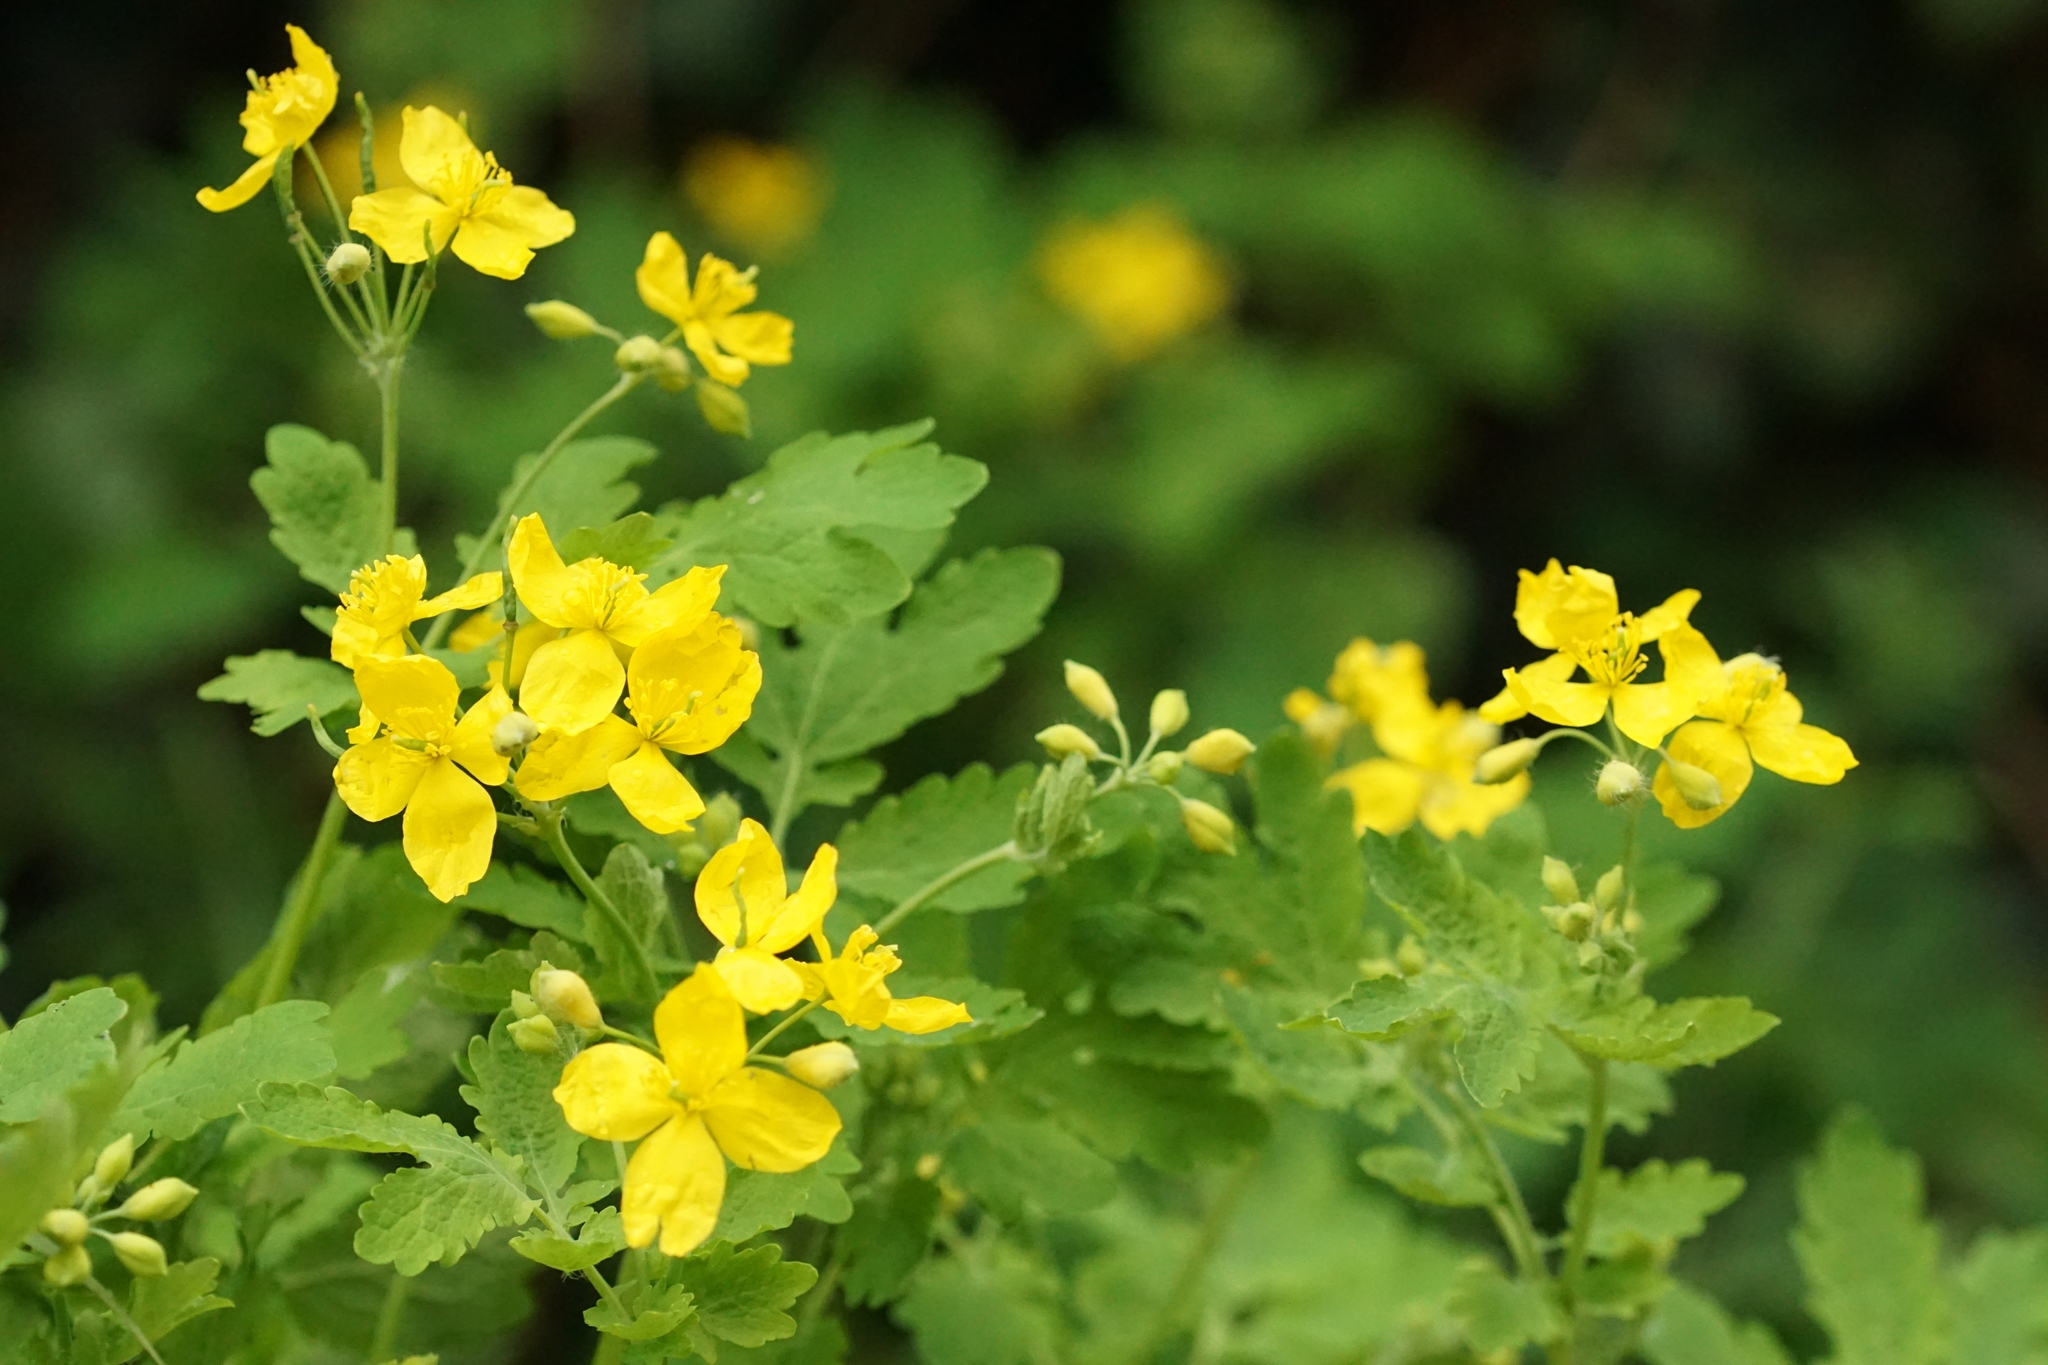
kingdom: Plantae
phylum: Tracheophyta
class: Magnoliopsida
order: Ranunculales
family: Papaveraceae
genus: Chelidonium
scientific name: Chelidonium majus
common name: Greater celandine
